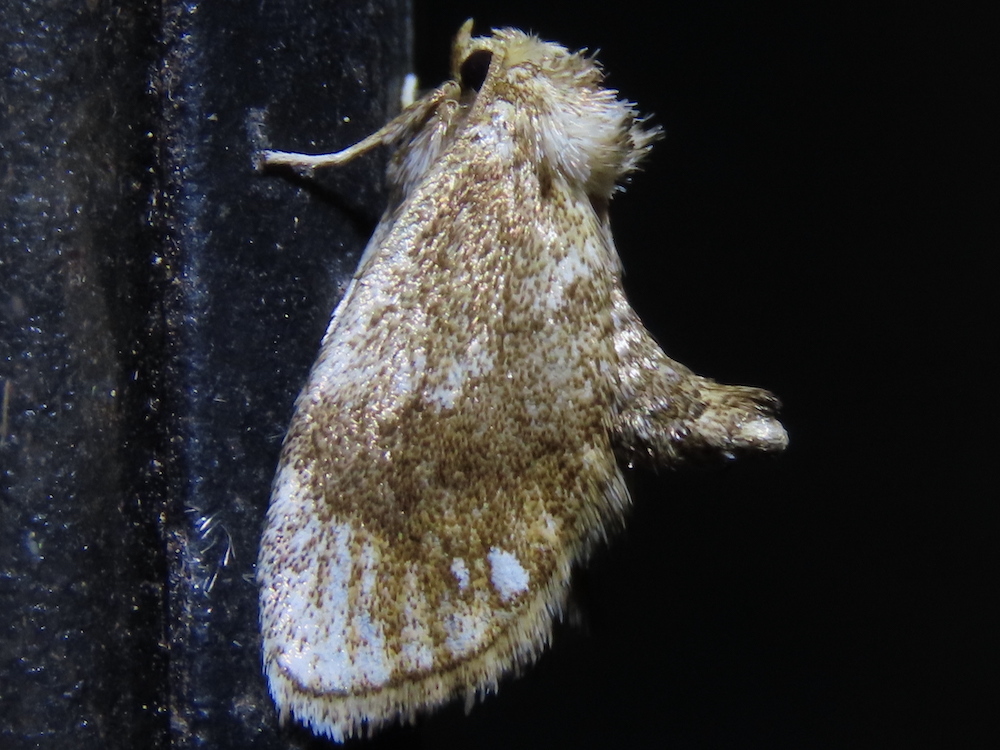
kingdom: Animalia
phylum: Arthropoda
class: Insecta
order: Lepidoptera
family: Limacodidae
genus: Packardia
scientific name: Packardia geminata
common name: Jeweled tailed slug moth
